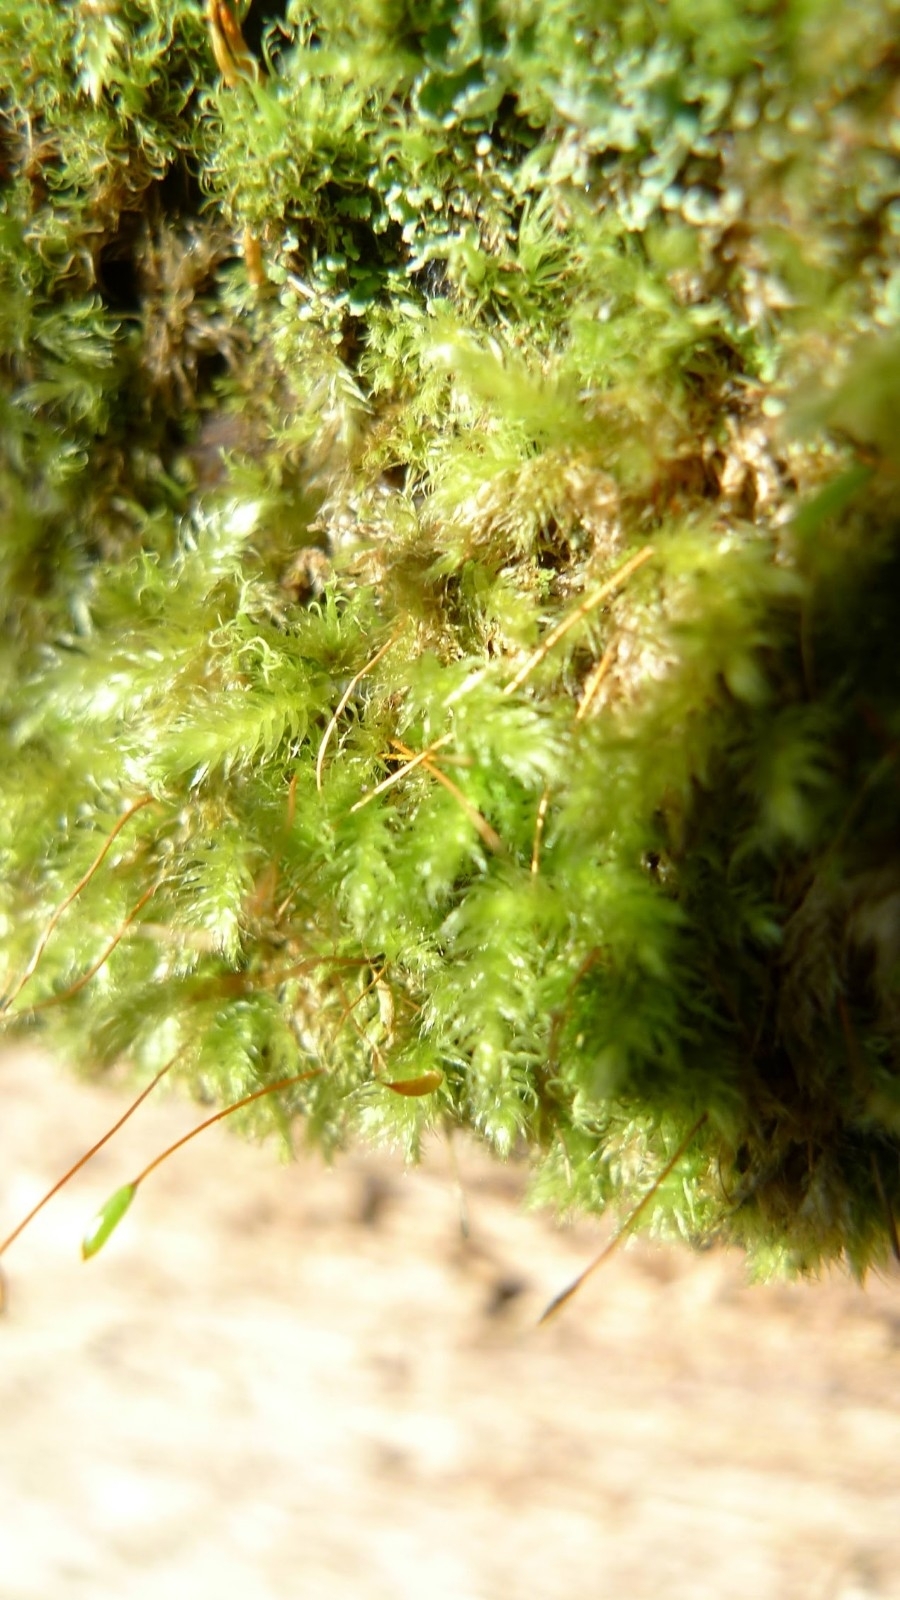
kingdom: Plantae
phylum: Bryophyta
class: Bryopsida
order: Hypnales
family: Plagiotheciaceae
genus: Herzogiella
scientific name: Herzogiella seligeri
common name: Silesian feather-moss
